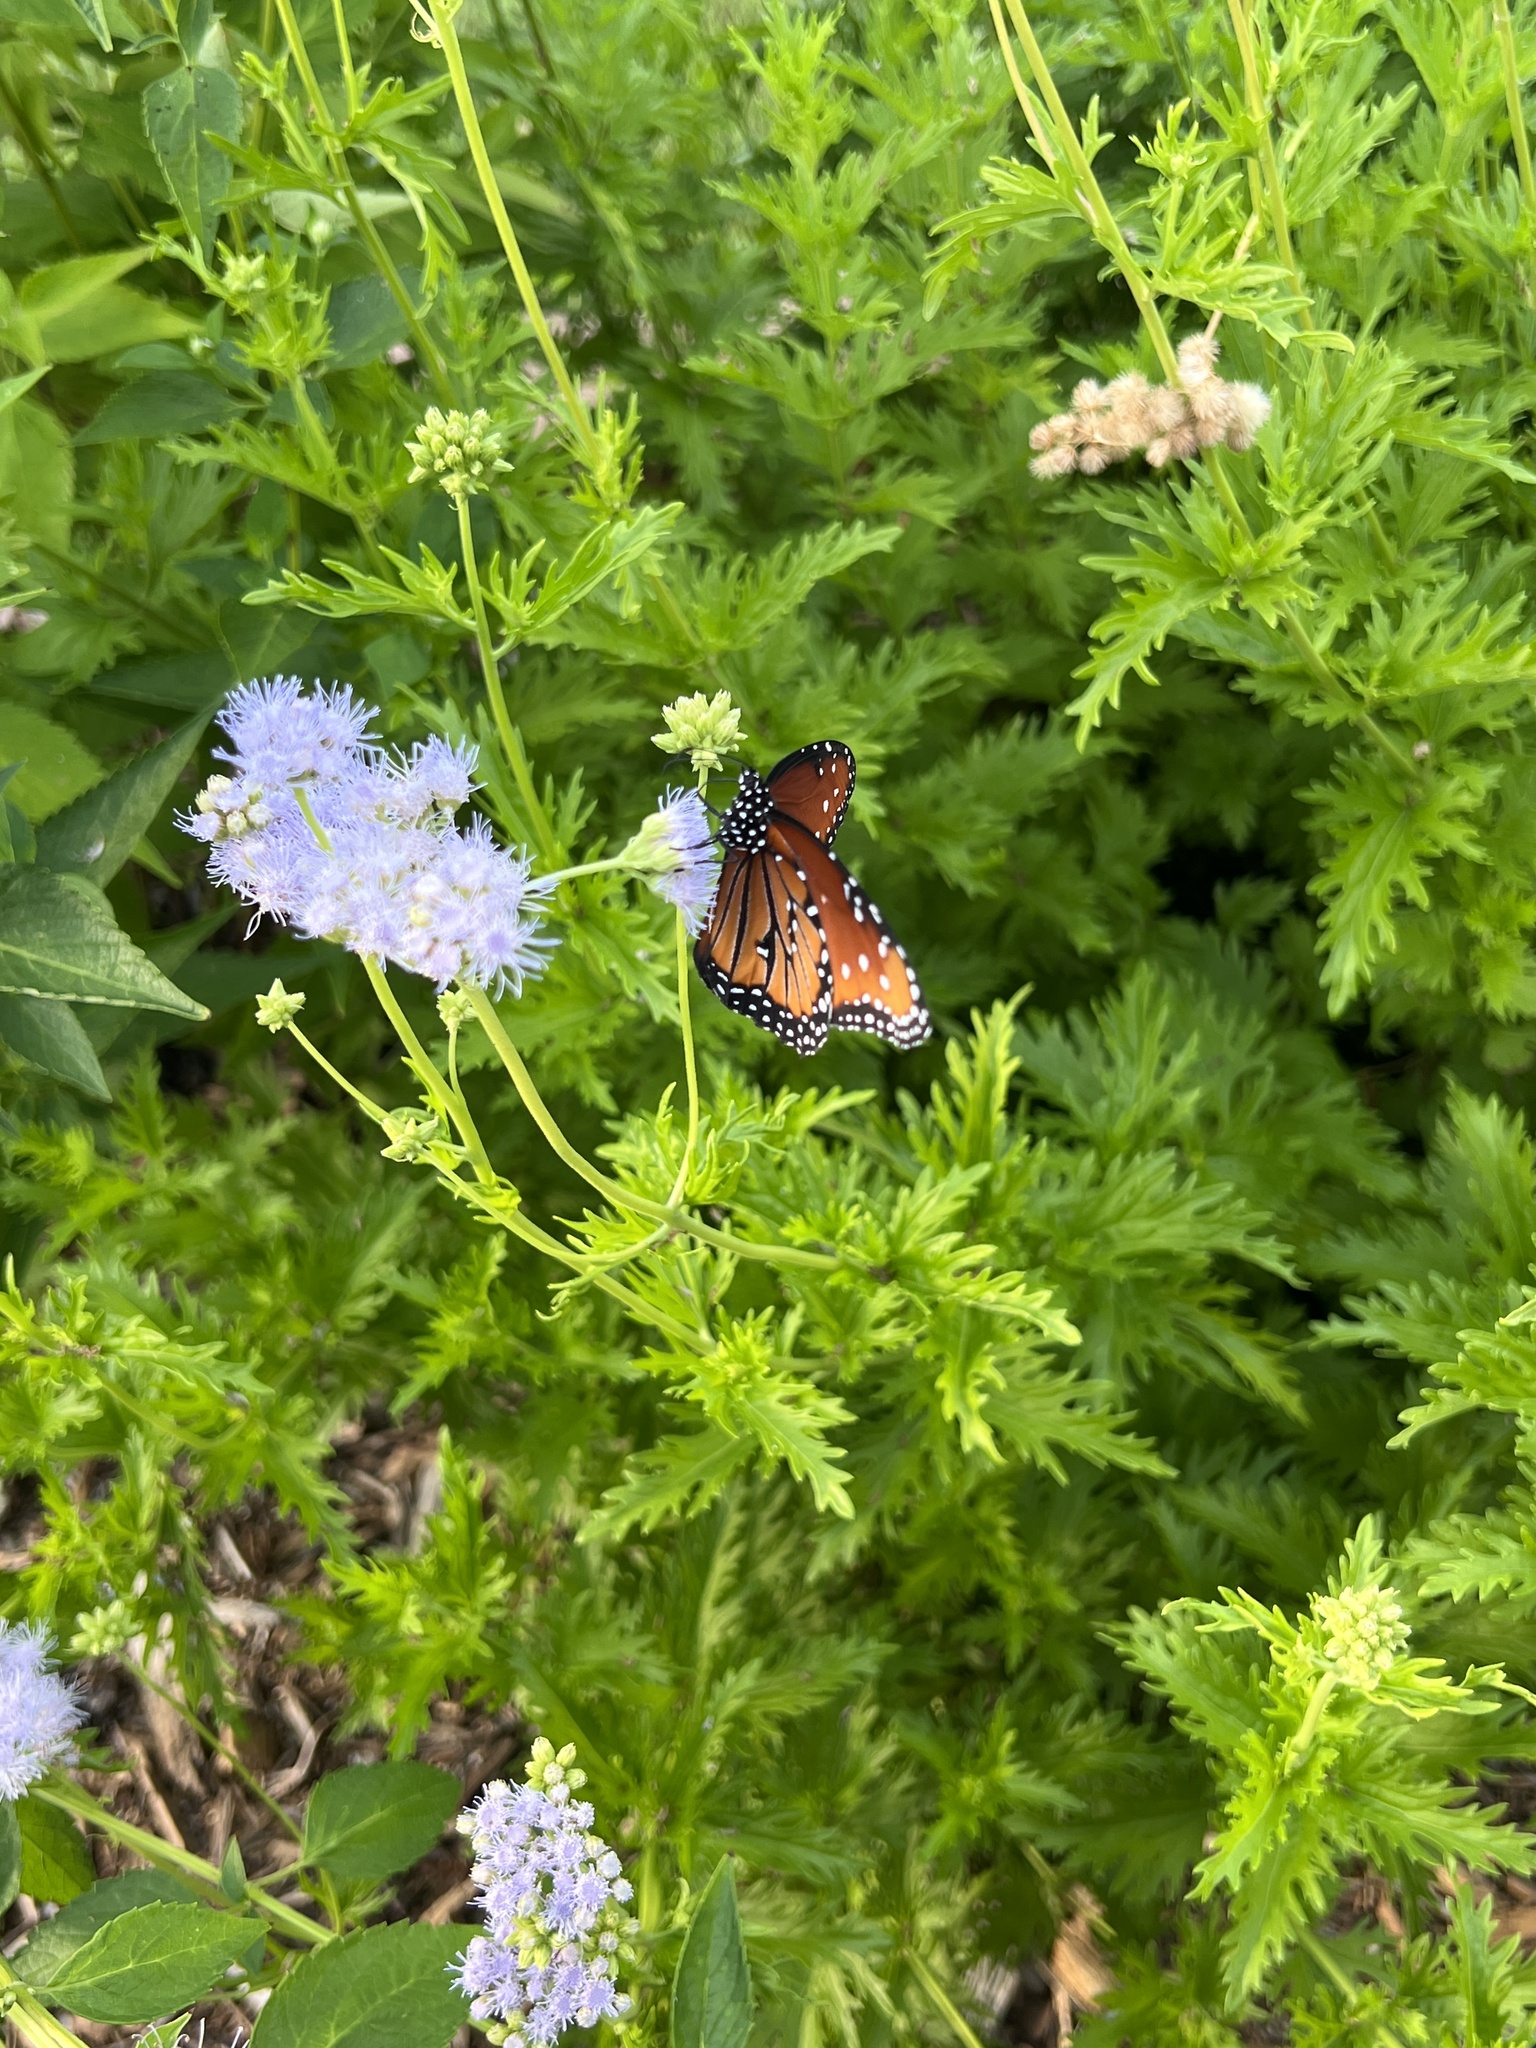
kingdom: Animalia
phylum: Arthropoda
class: Insecta
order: Lepidoptera
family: Nymphalidae
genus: Danaus
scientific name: Danaus gilippus
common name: Queen
